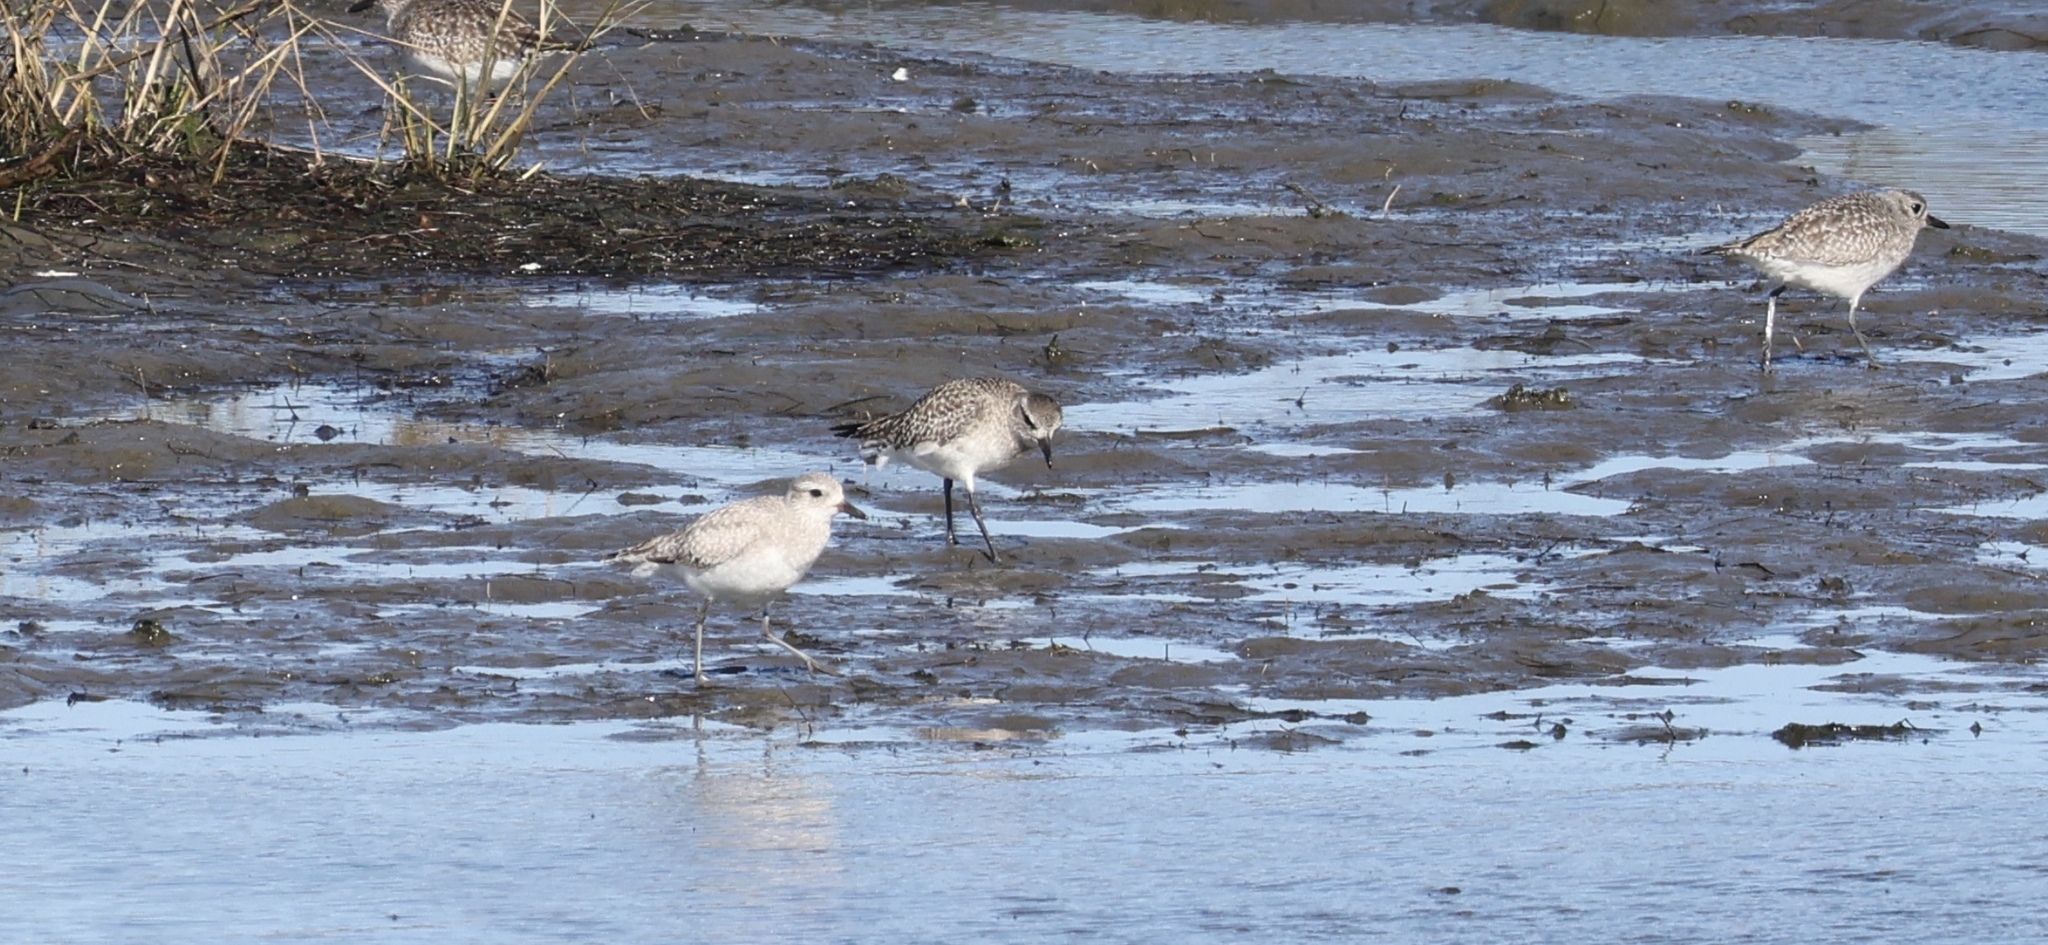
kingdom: Animalia
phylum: Chordata
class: Aves
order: Charadriiformes
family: Charadriidae
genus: Pluvialis
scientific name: Pluvialis squatarola
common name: Grey plover
